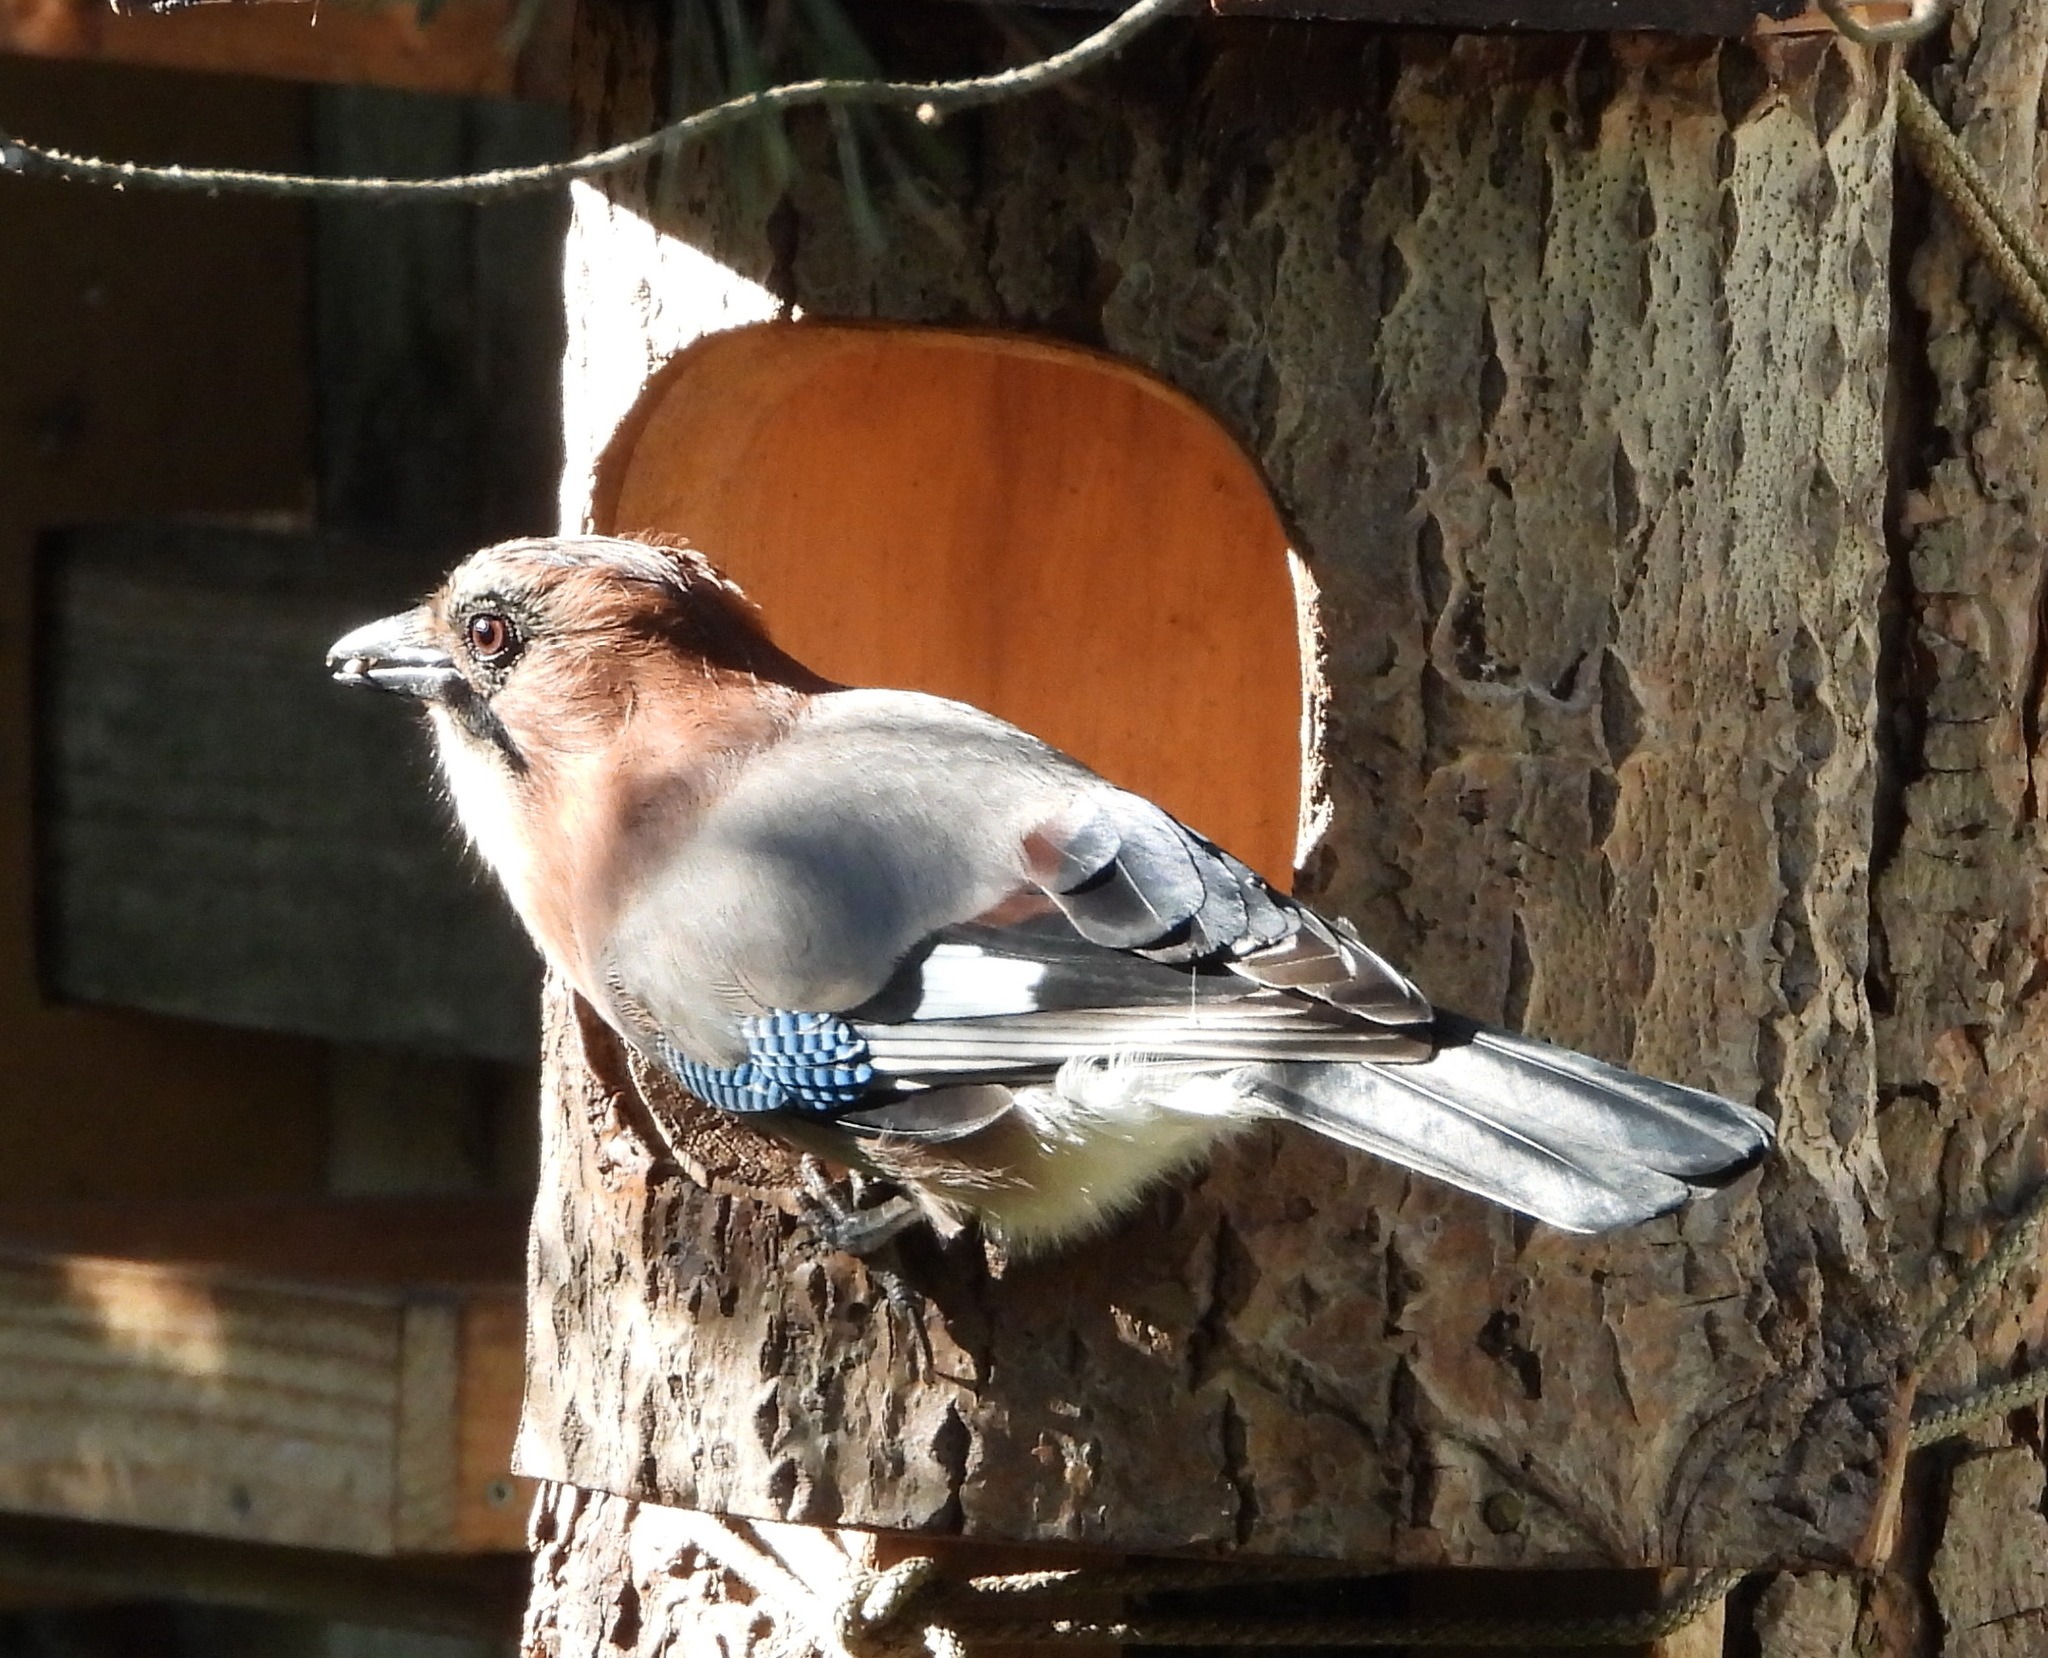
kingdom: Animalia
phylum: Chordata
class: Aves
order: Passeriformes
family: Corvidae
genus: Garrulus
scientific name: Garrulus glandarius
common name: Eurasian jay
